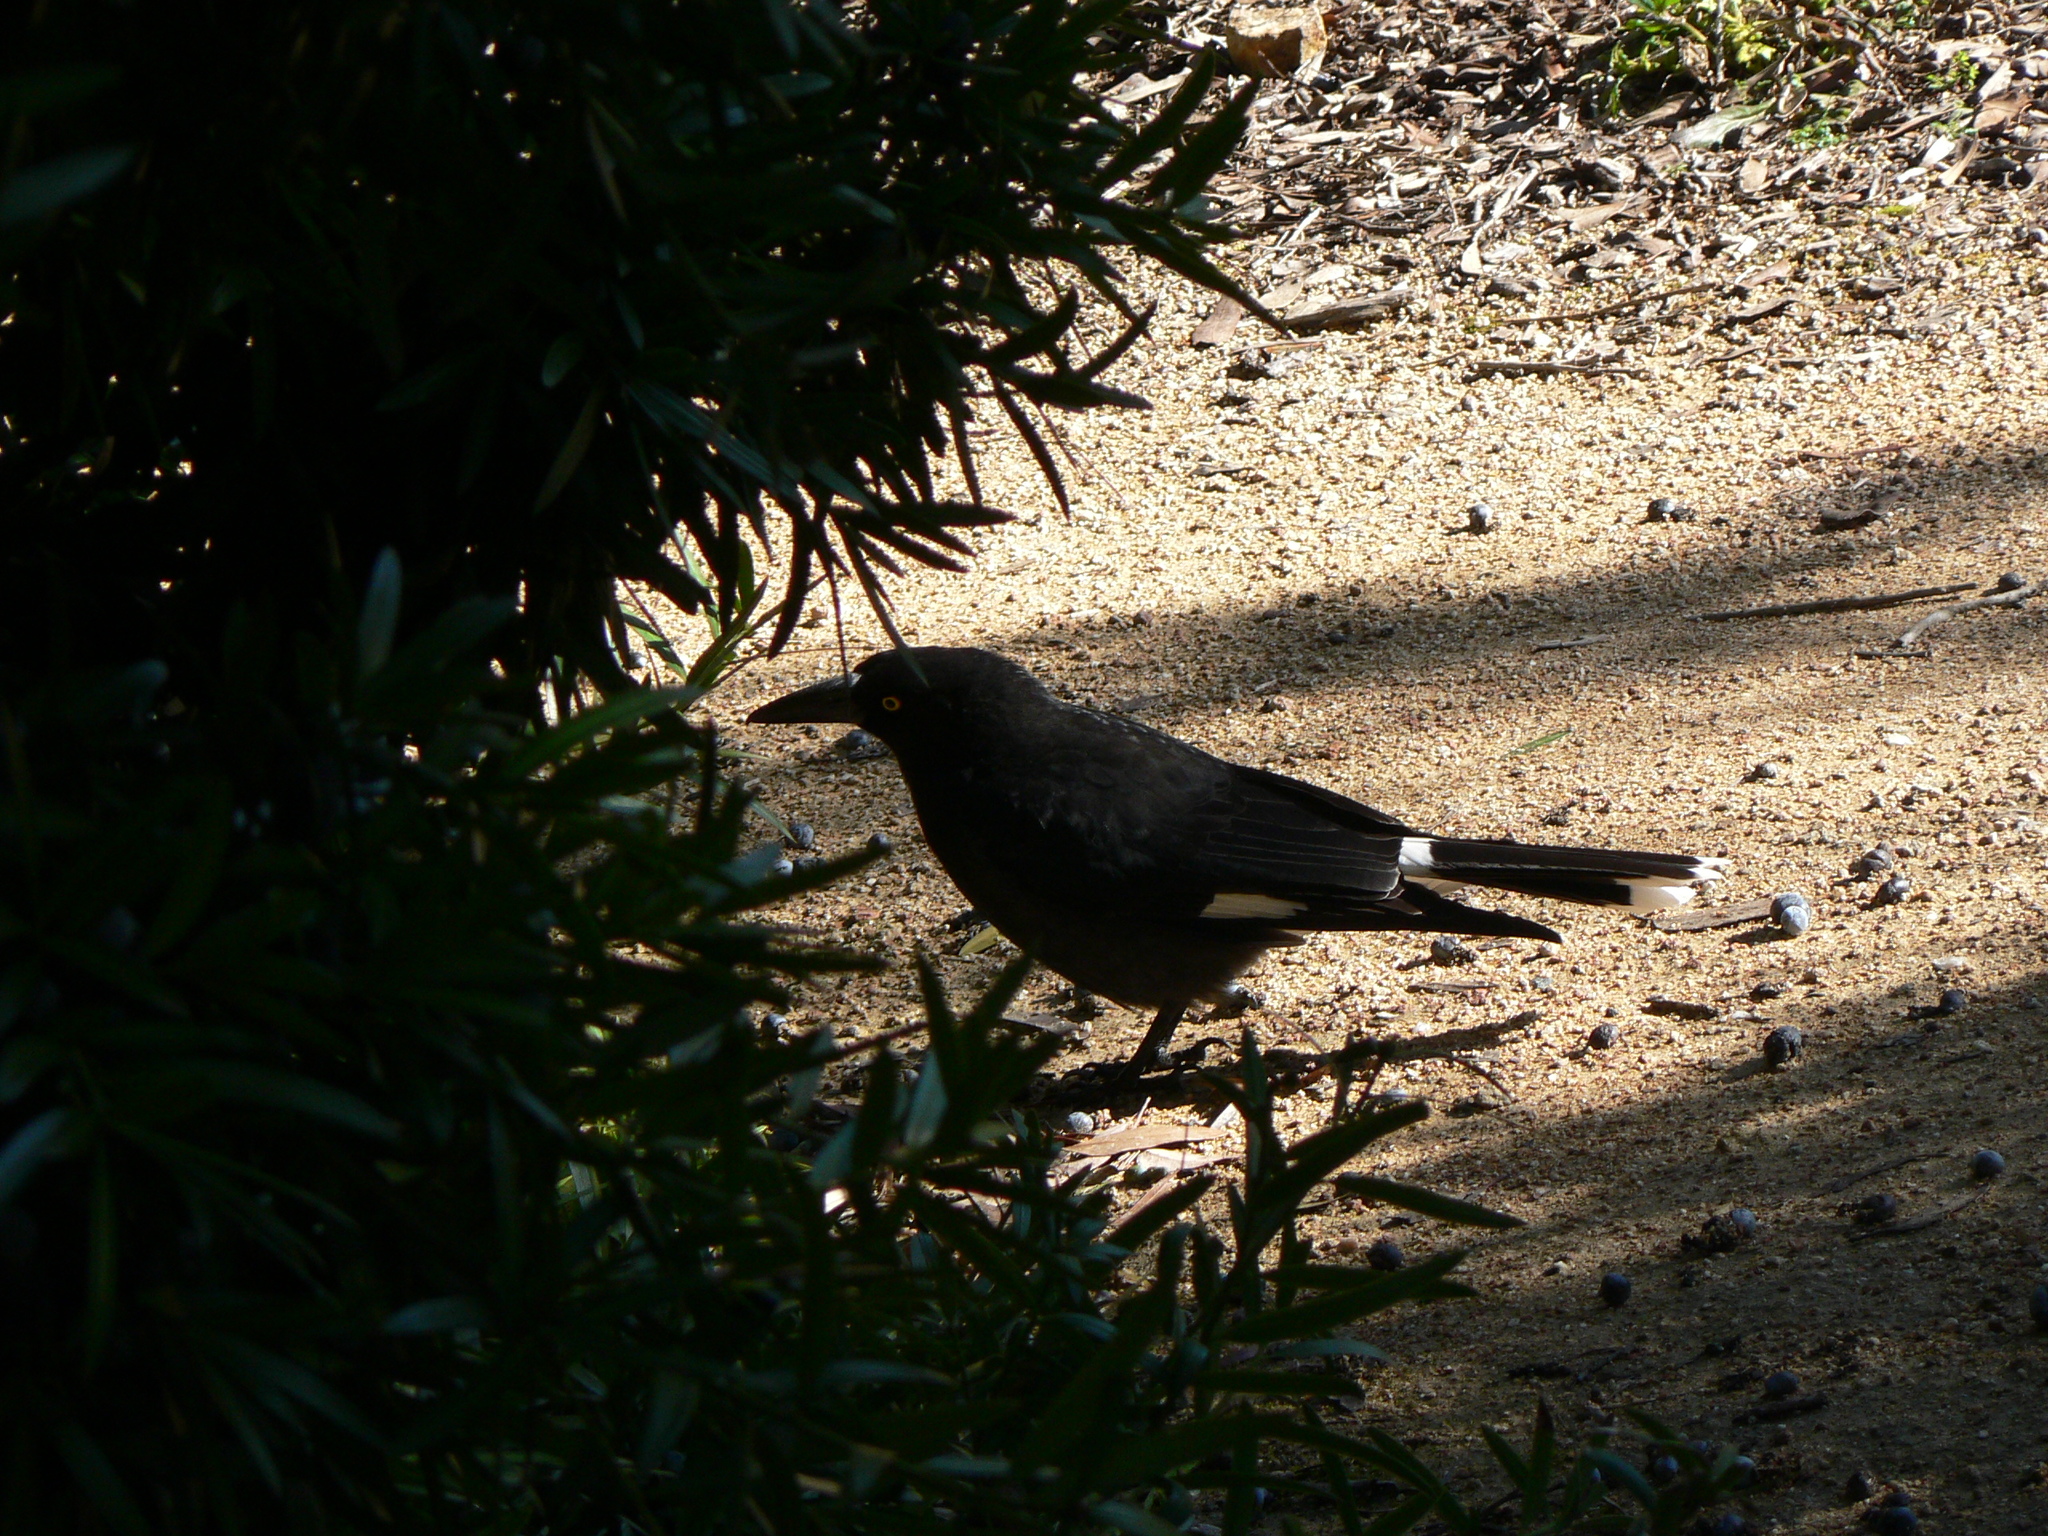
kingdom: Animalia
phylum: Chordata
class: Aves
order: Passeriformes
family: Cracticidae
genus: Strepera
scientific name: Strepera graculina
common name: Pied currawong
